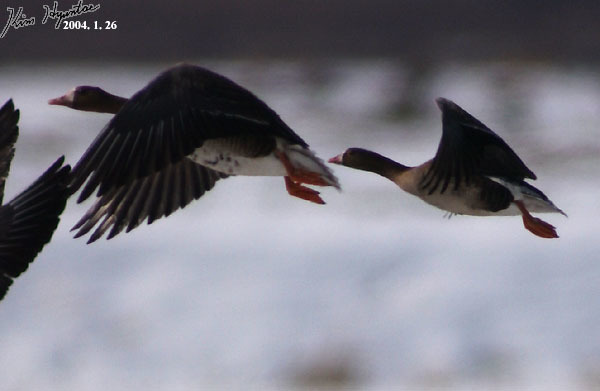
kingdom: Animalia
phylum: Chordata
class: Aves
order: Anseriformes
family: Anatidae
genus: Anser
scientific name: Anser erythropus
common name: Lesser white-fronted goose
